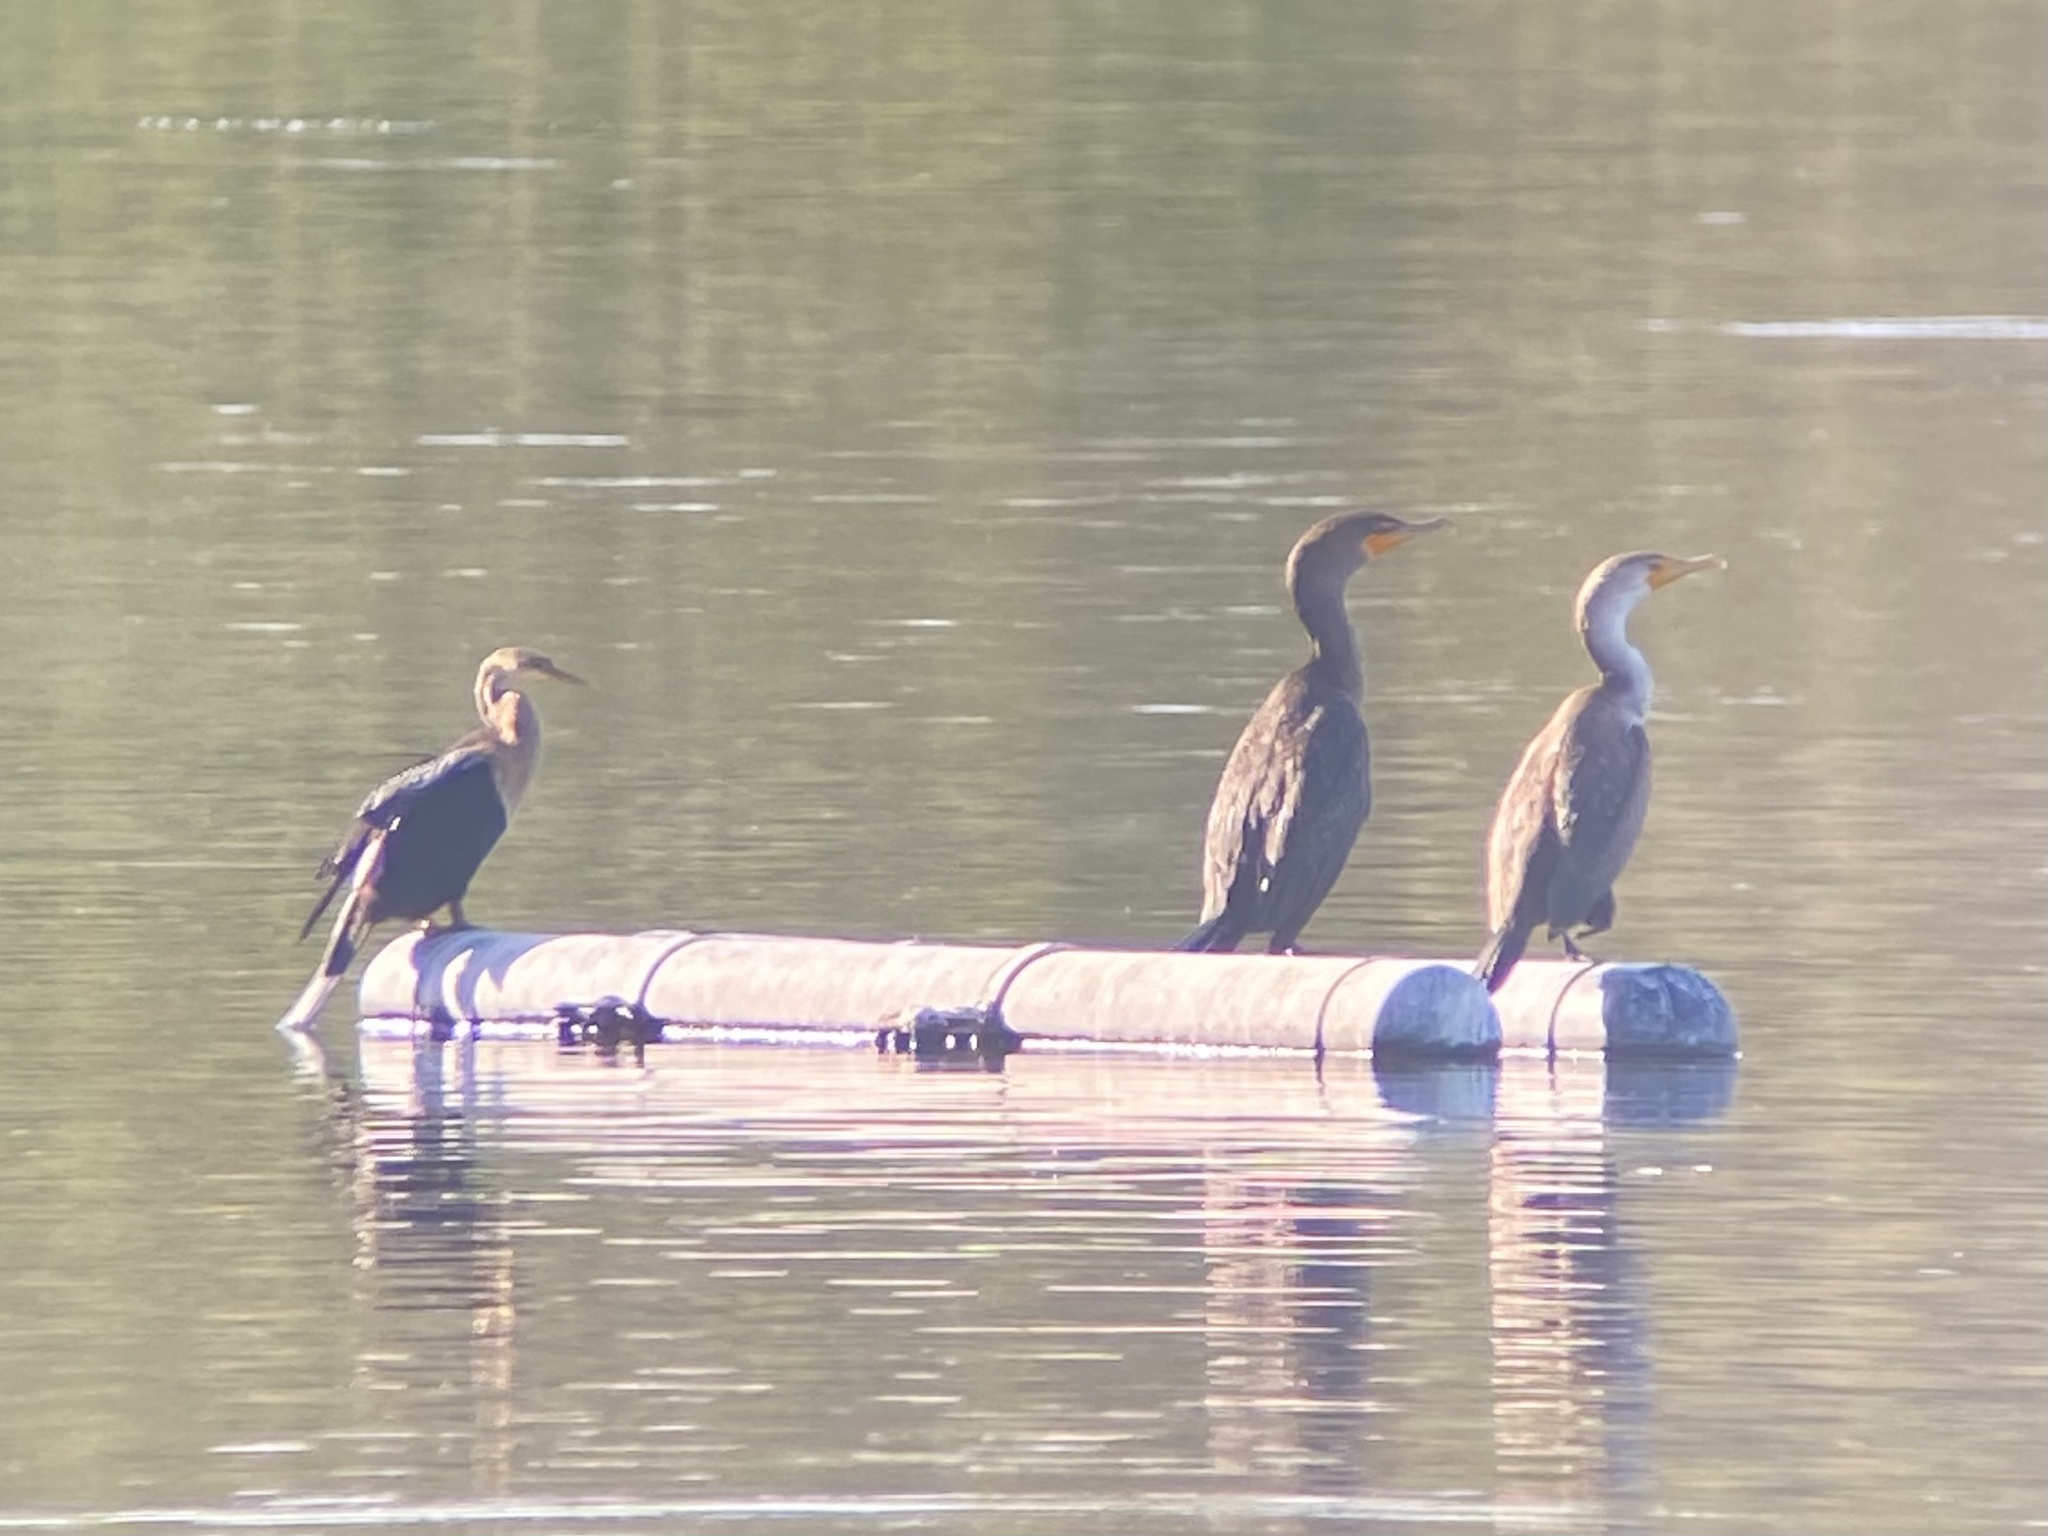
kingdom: Animalia
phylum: Chordata
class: Aves
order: Suliformes
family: Anhingidae
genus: Anhinga
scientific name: Anhinga anhinga
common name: Anhinga
